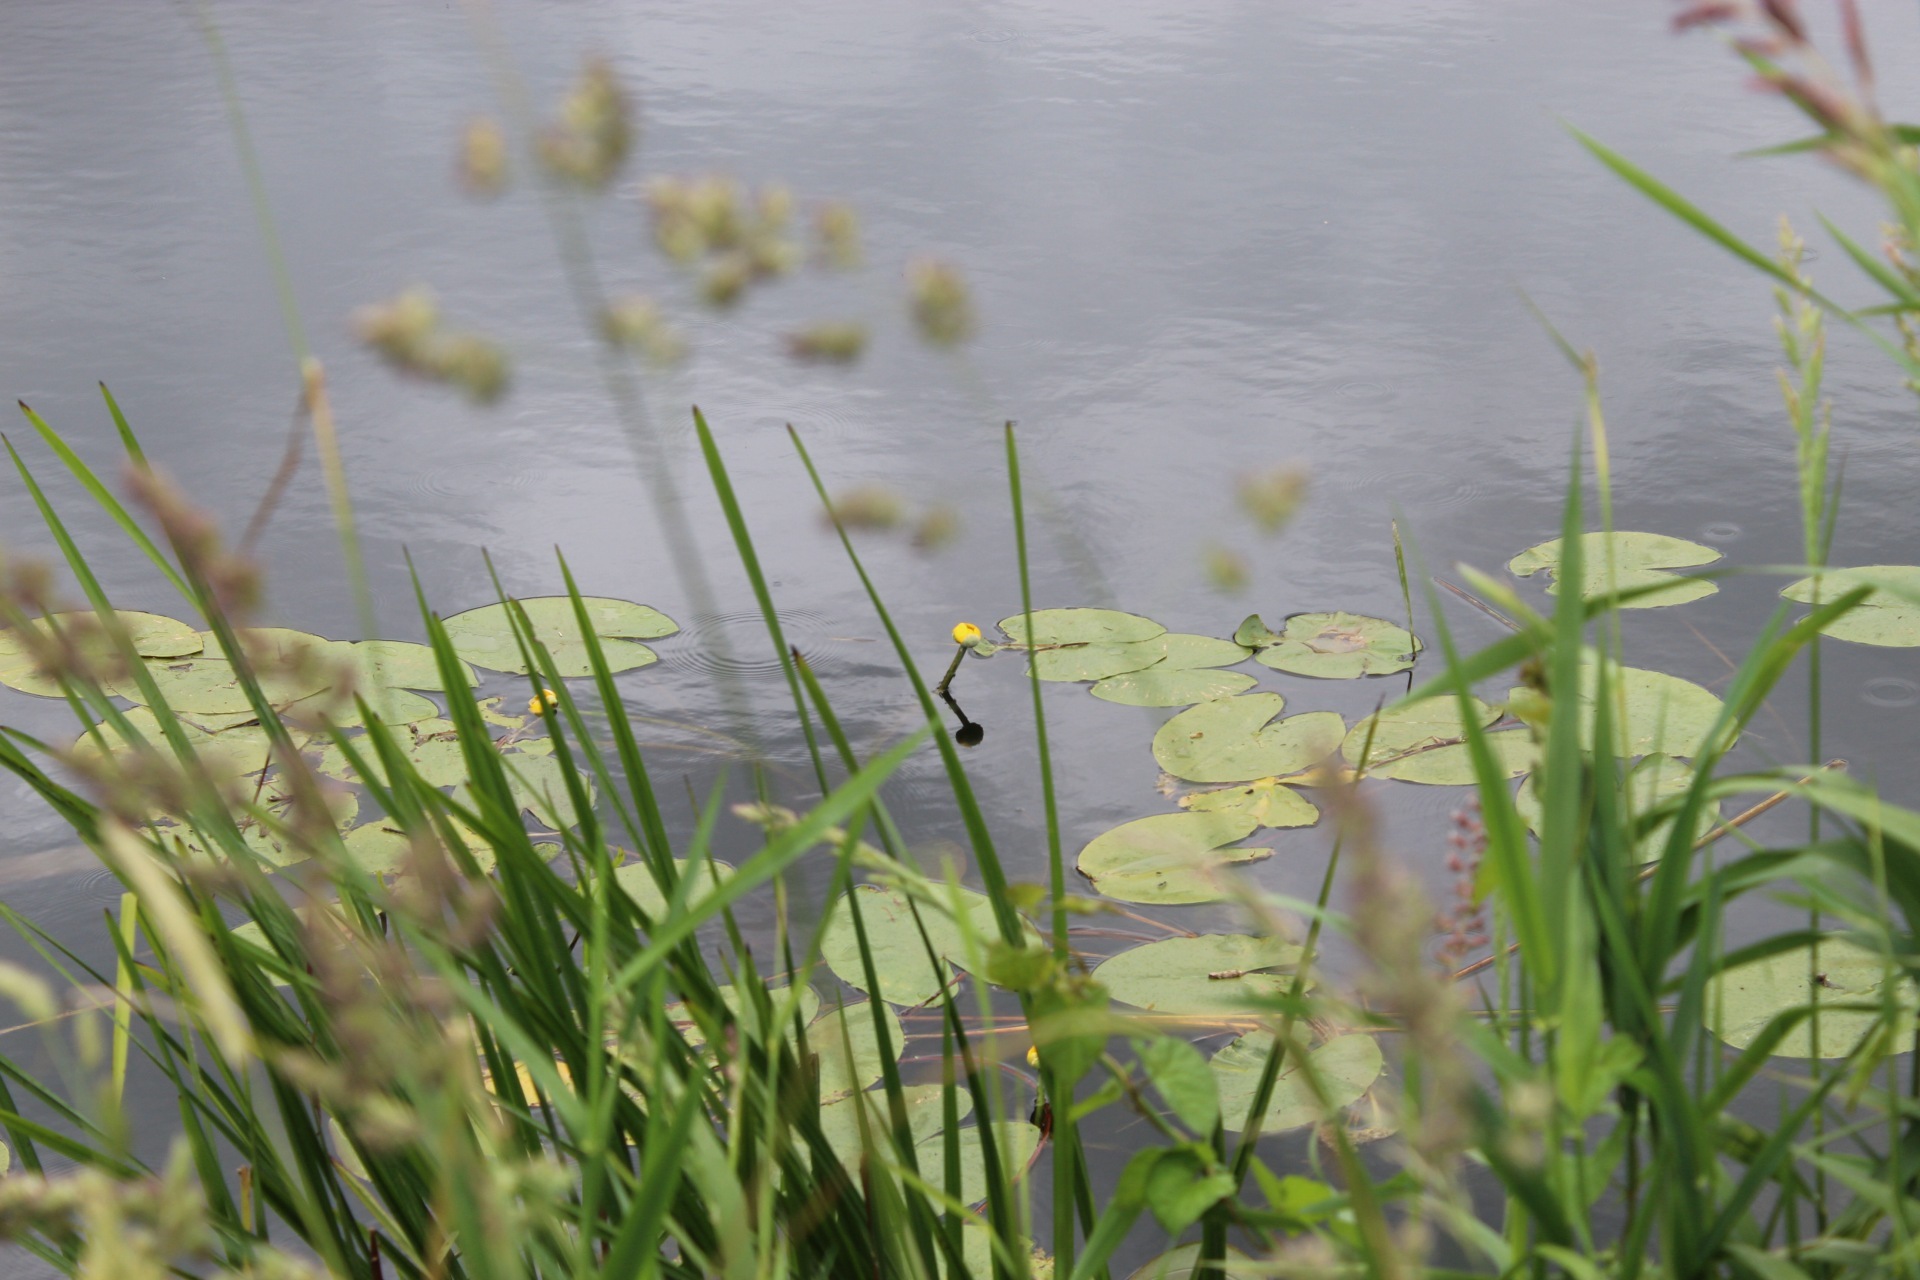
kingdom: Plantae
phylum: Tracheophyta
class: Magnoliopsida
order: Nymphaeales
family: Nymphaeaceae
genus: Nuphar
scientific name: Nuphar lutea
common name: Yellow water-lily
